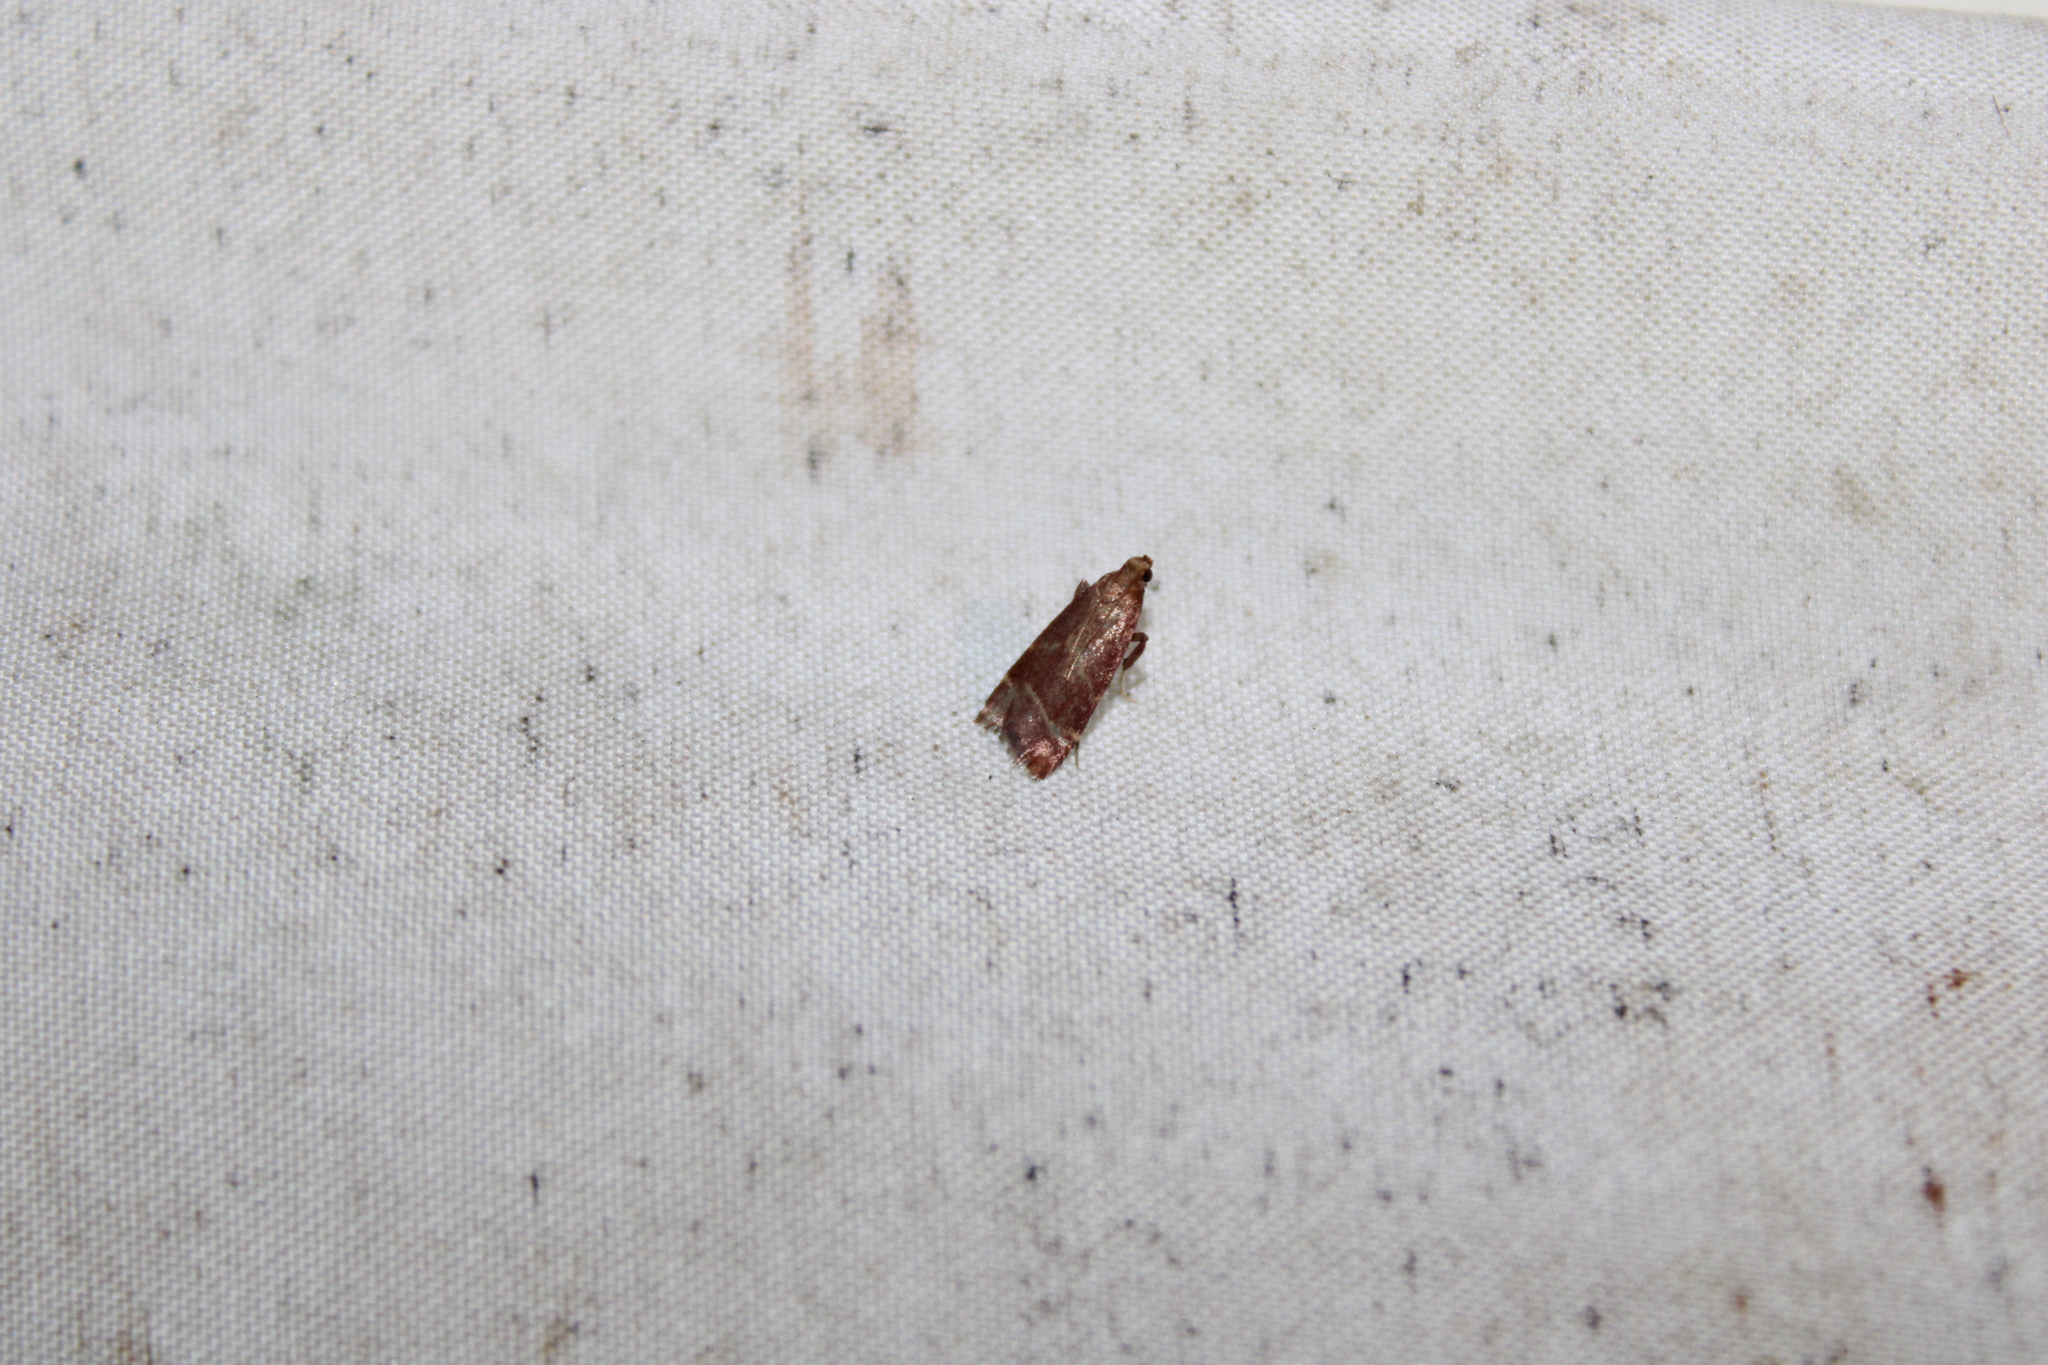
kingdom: Animalia
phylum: Arthropoda
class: Insecta
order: Lepidoptera
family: Pyralidae
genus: Arta
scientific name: Arta statalis
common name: Posturing arta moth
